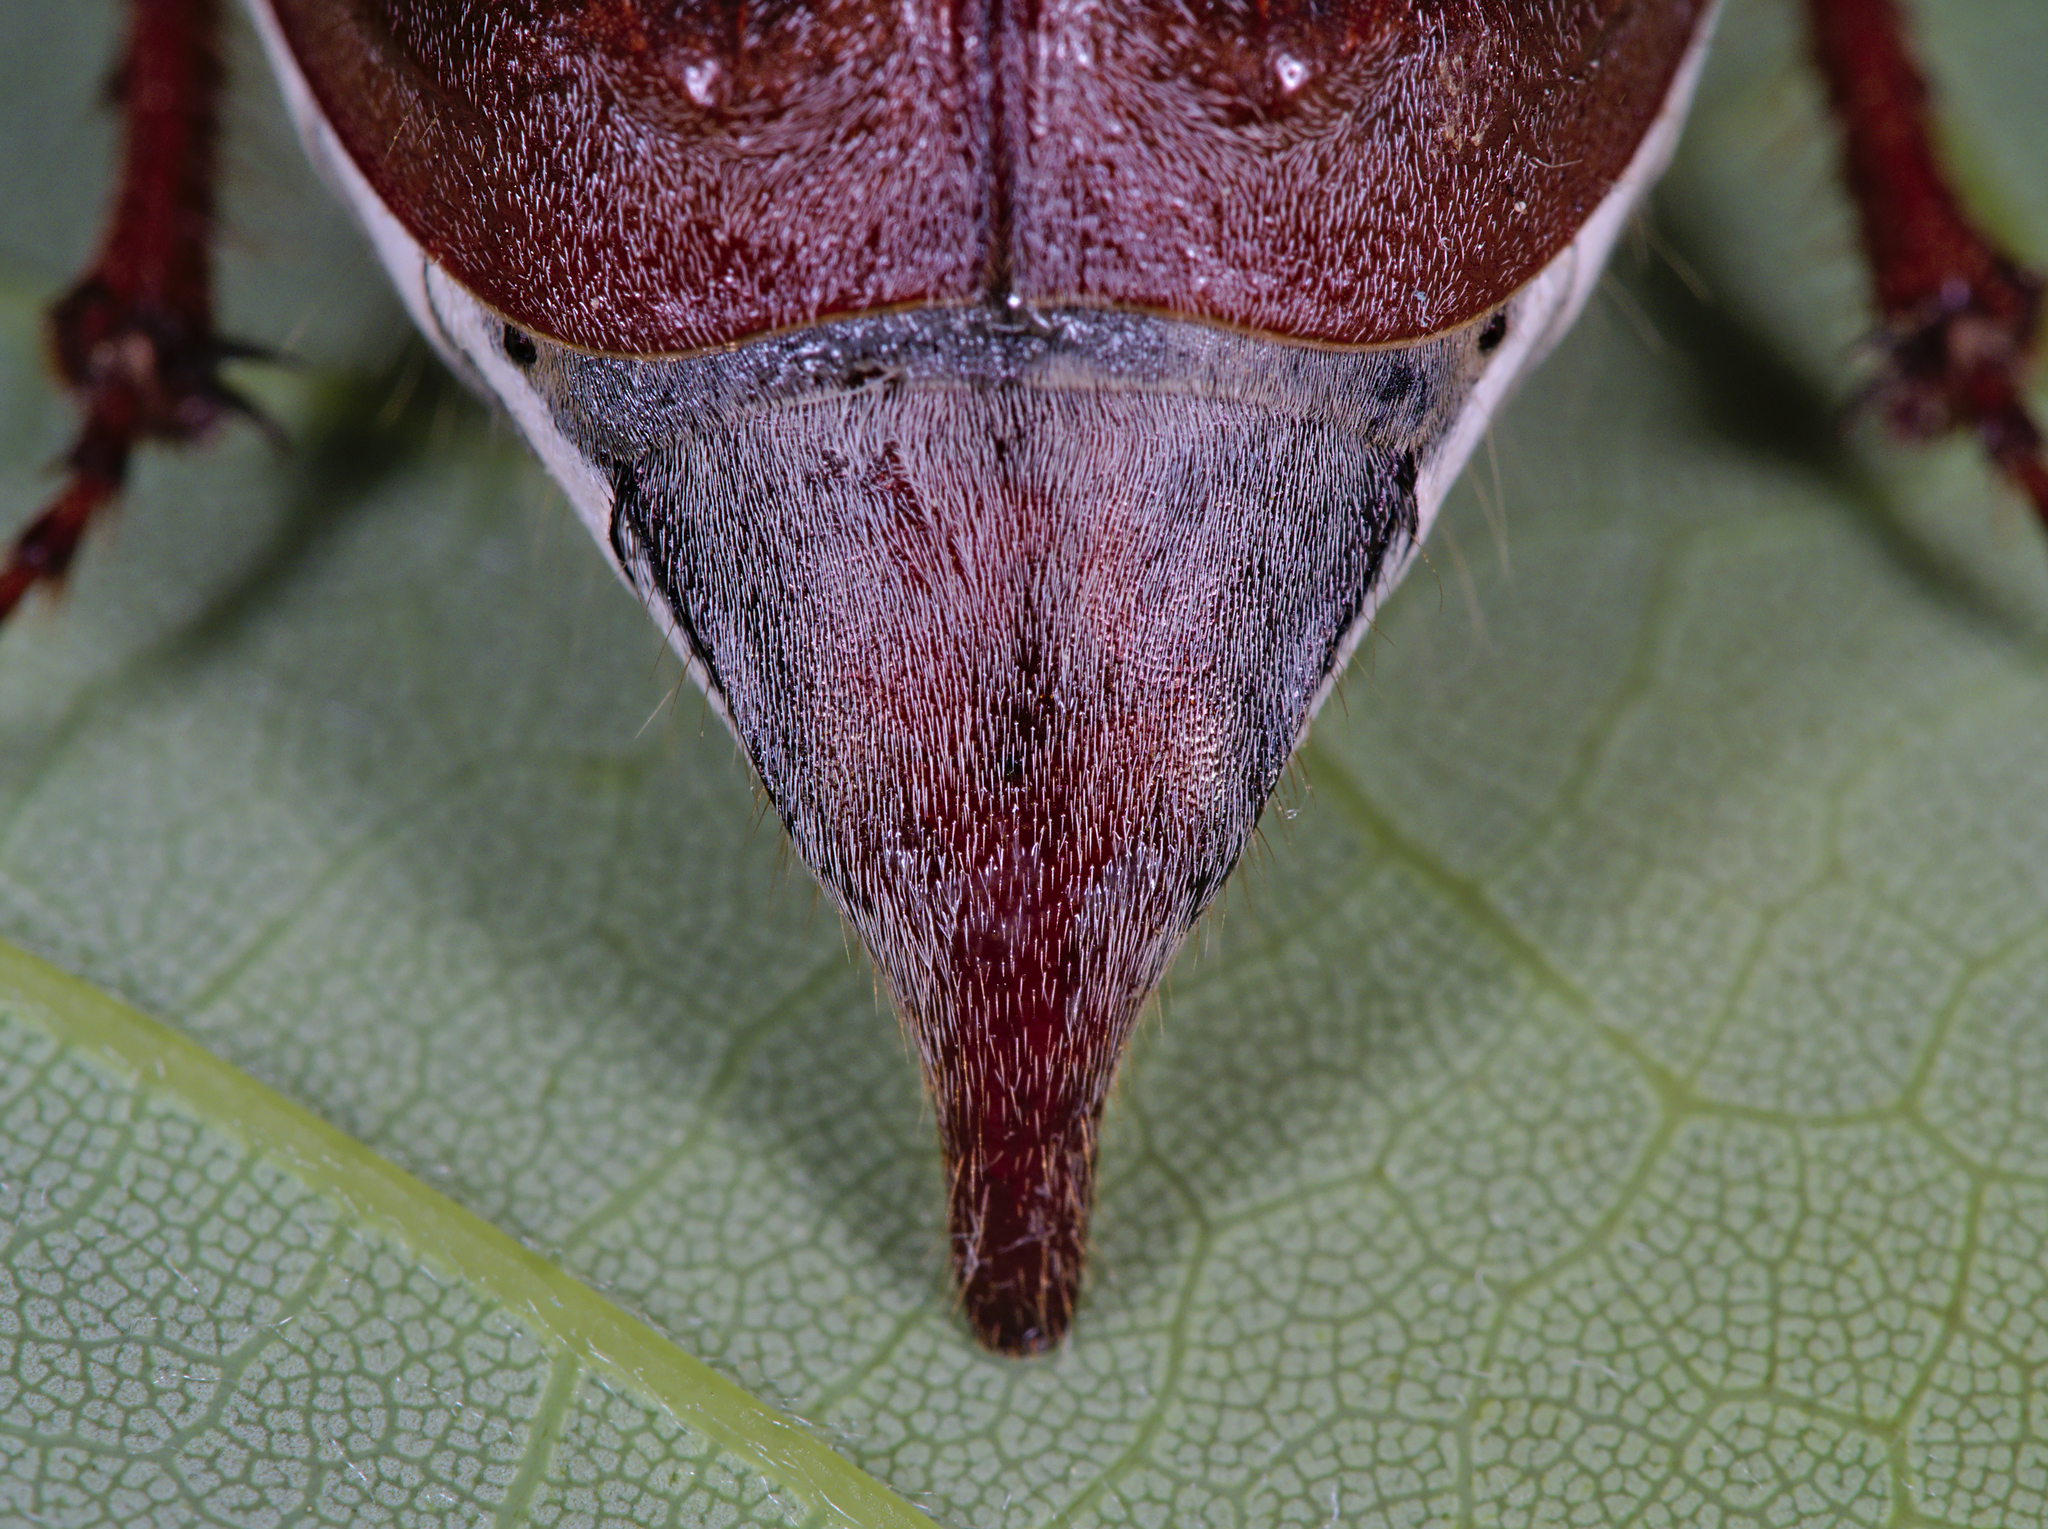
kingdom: Animalia
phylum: Arthropoda
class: Insecta
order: Coleoptera
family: Scarabaeidae
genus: Melolontha
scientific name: Melolontha melolontha
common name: Cockchafer maybeetle
